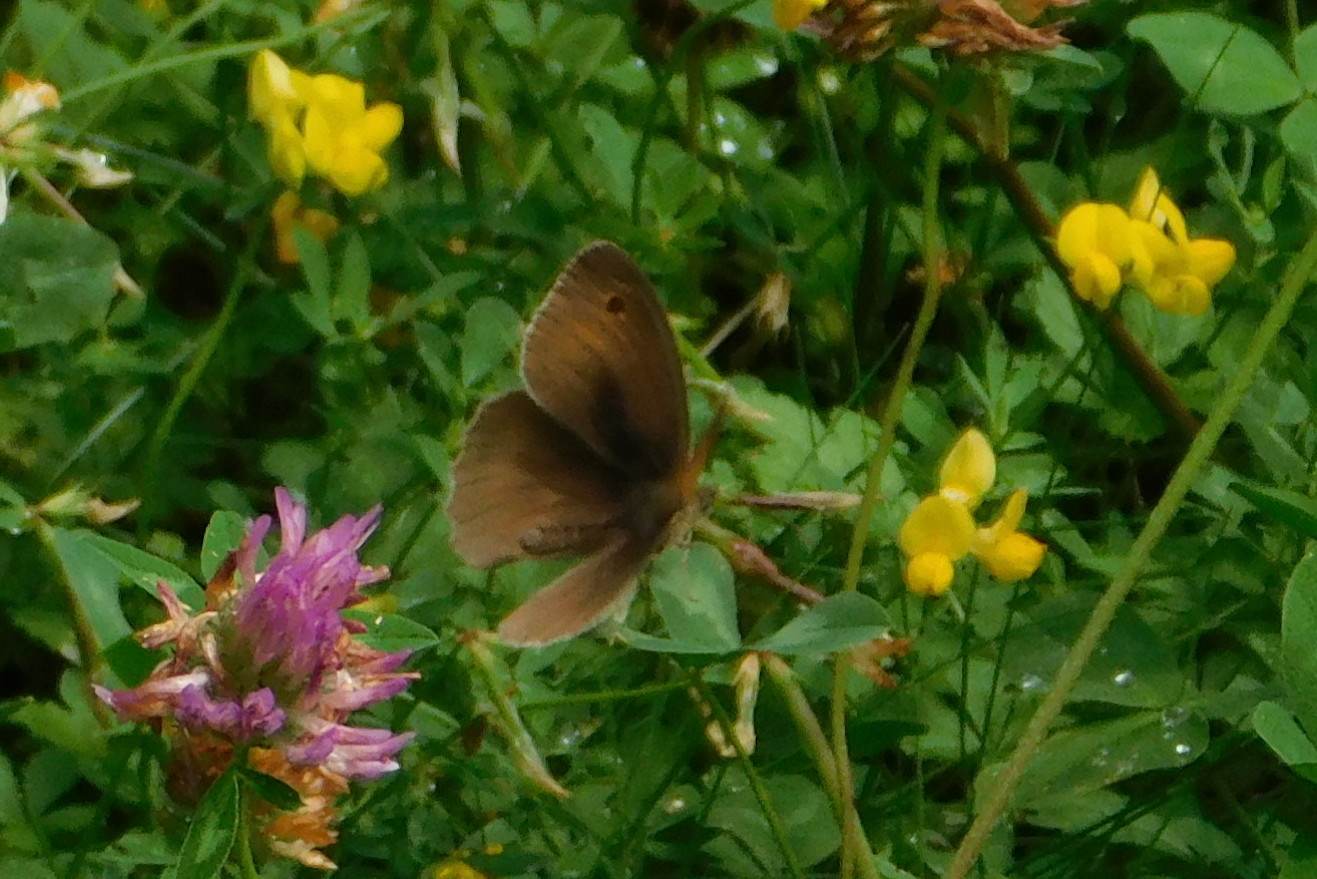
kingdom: Animalia
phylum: Arthropoda
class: Insecta
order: Lepidoptera
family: Nymphalidae
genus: Maniola
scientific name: Maniola jurtina
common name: Meadow brown
